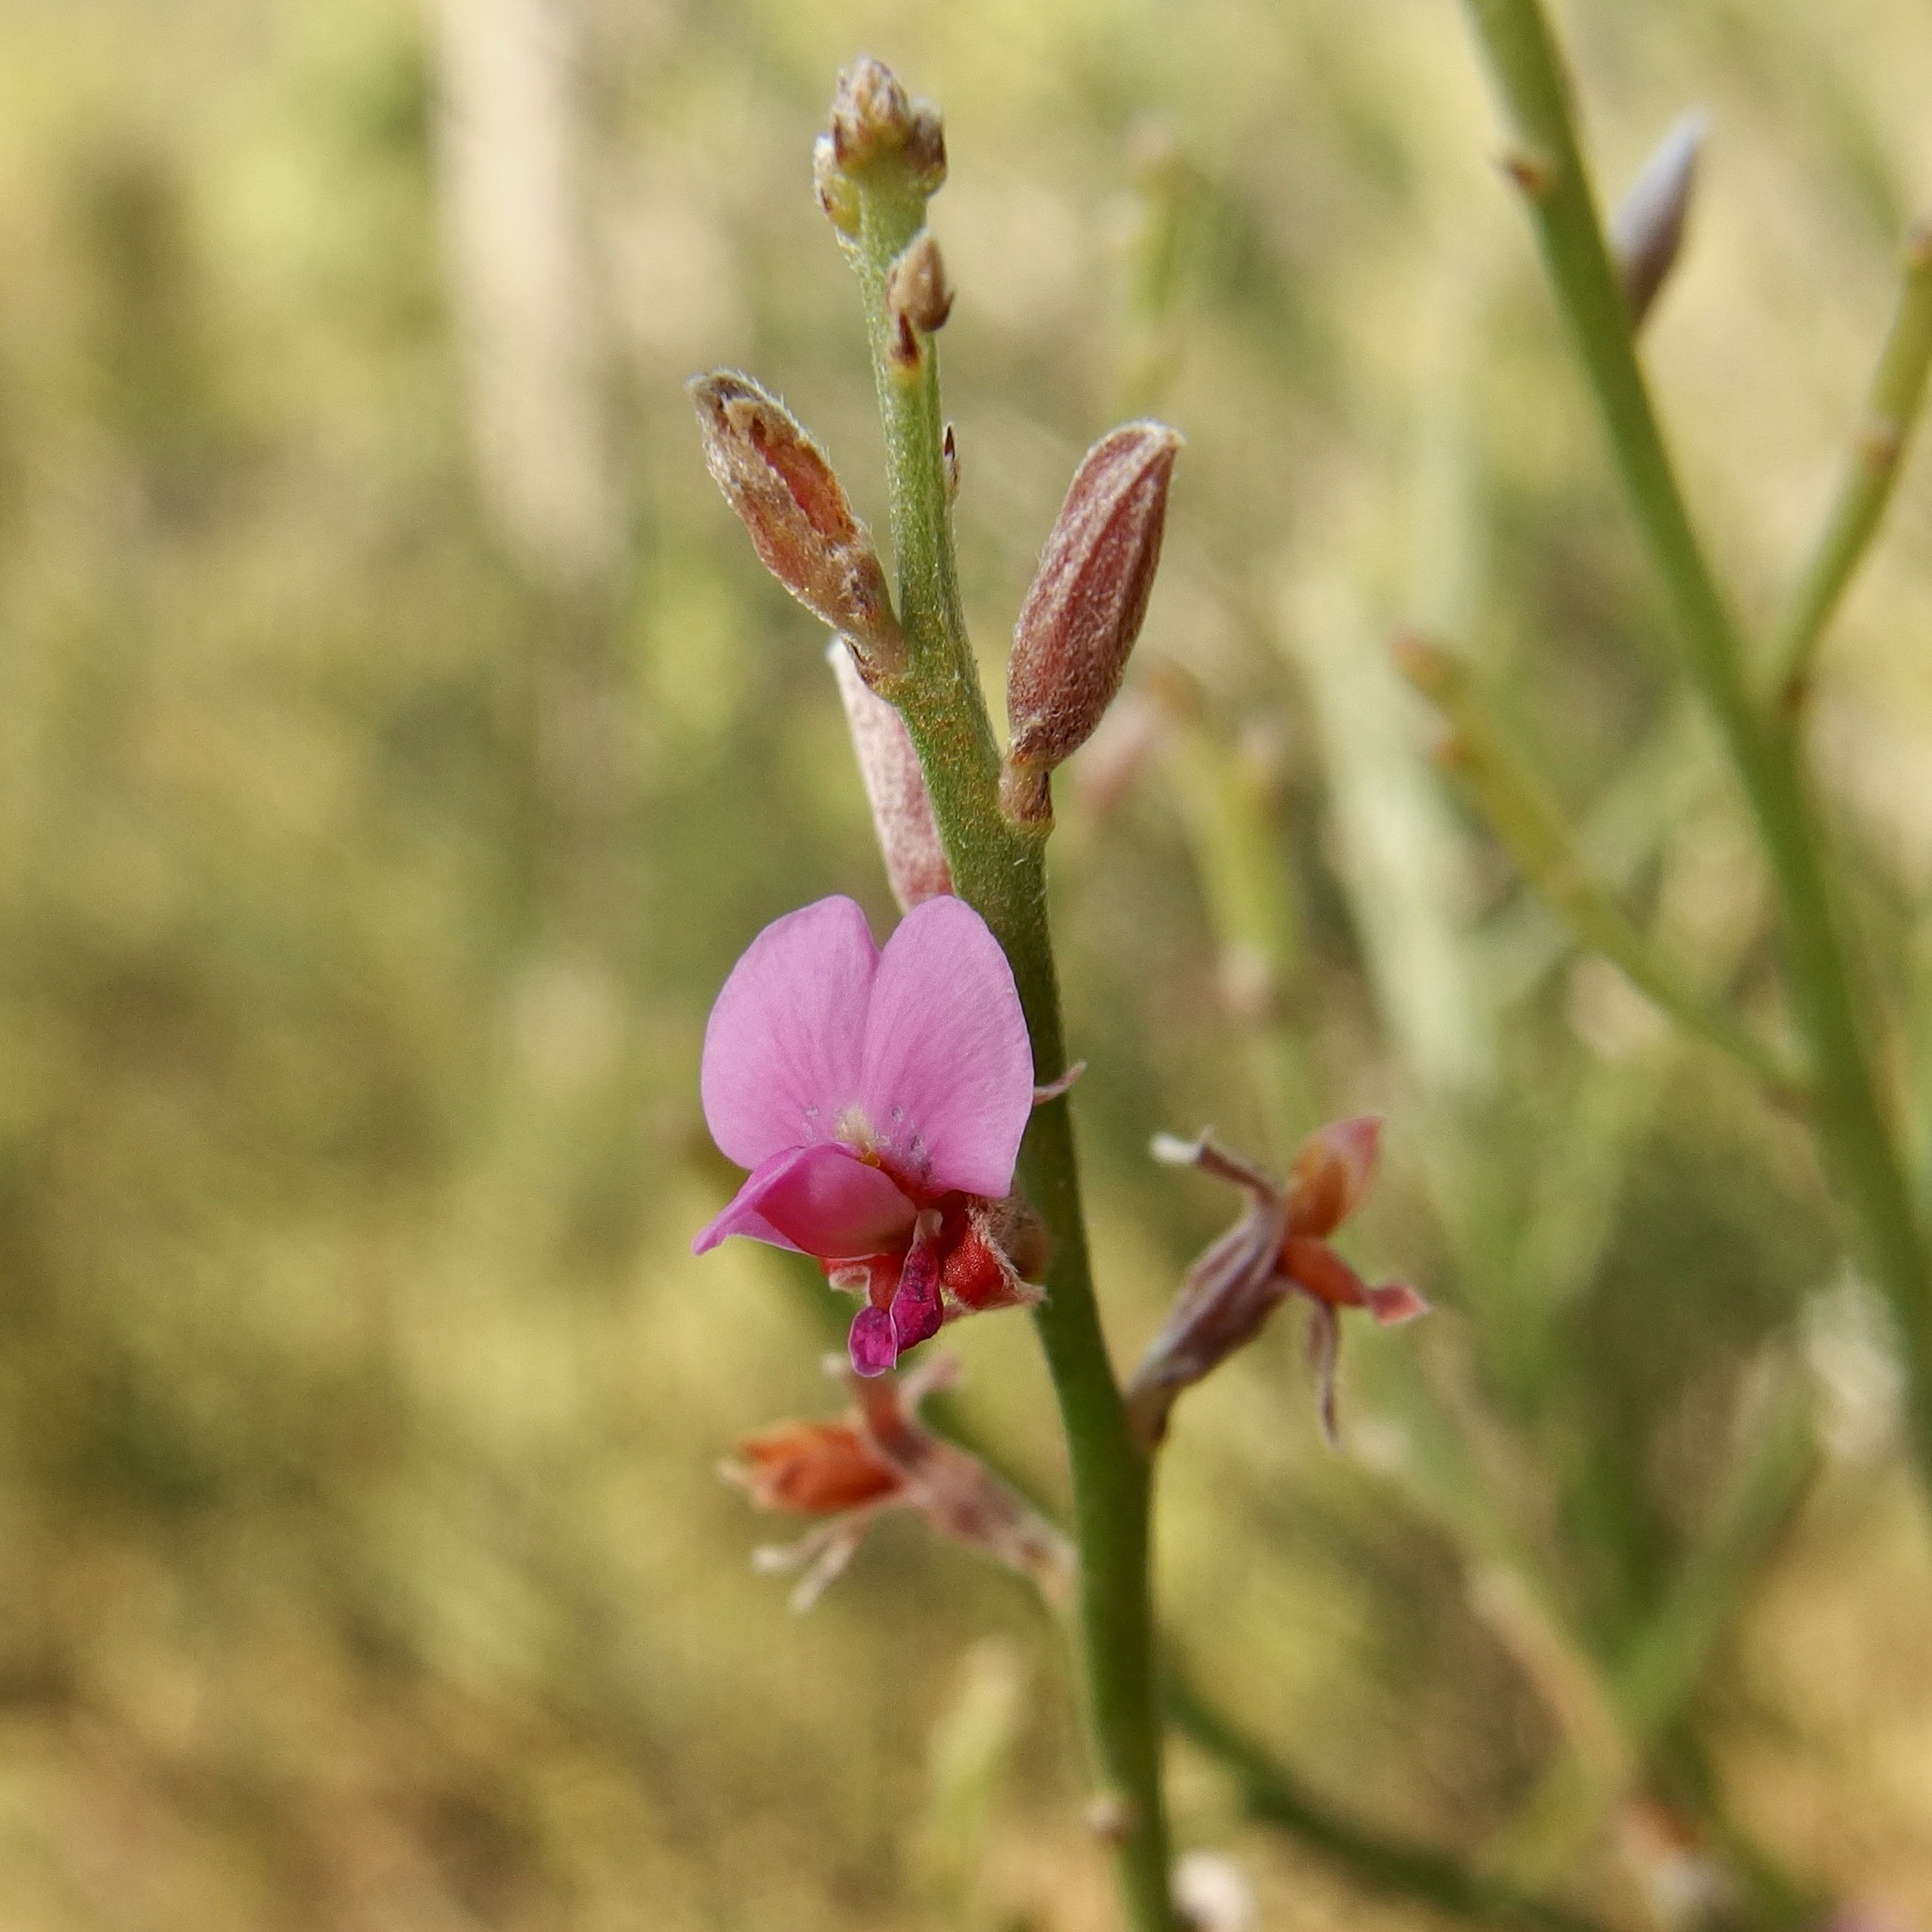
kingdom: Plantae
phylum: Tracheophyta
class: Magnoliopsida
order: Fabales
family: Fabaceae
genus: Jacksonia
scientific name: Jacksonia thesioides
